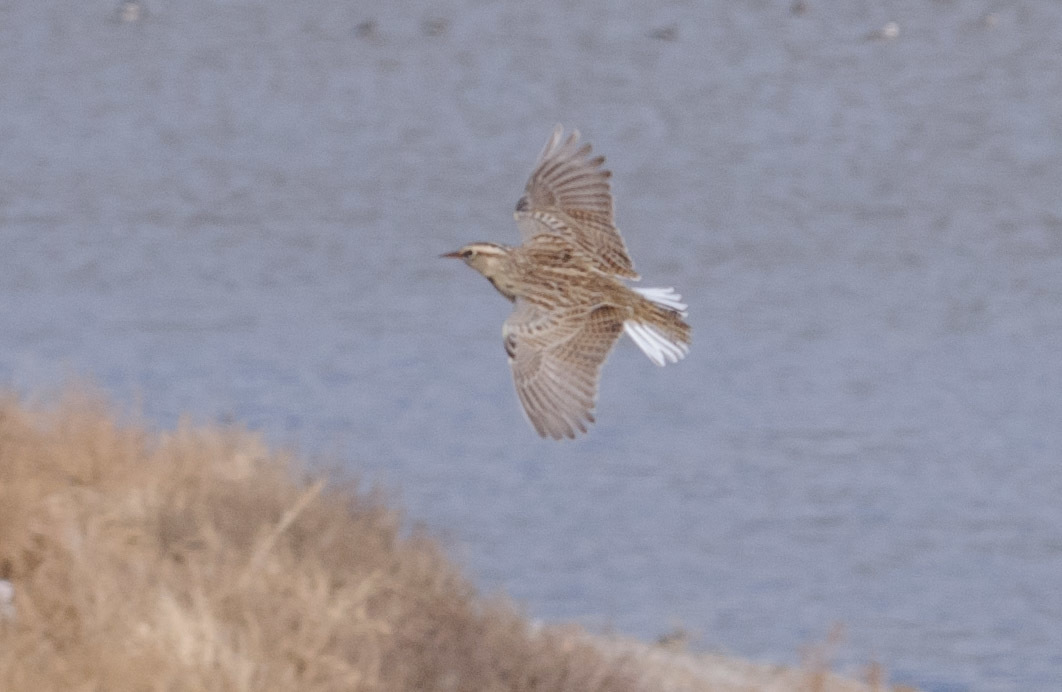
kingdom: Animalia
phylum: Chordata
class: Aves
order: Passeriformes
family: Icteridae
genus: Sturnella
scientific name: Sturnella neglecta
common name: Western meadowlark
